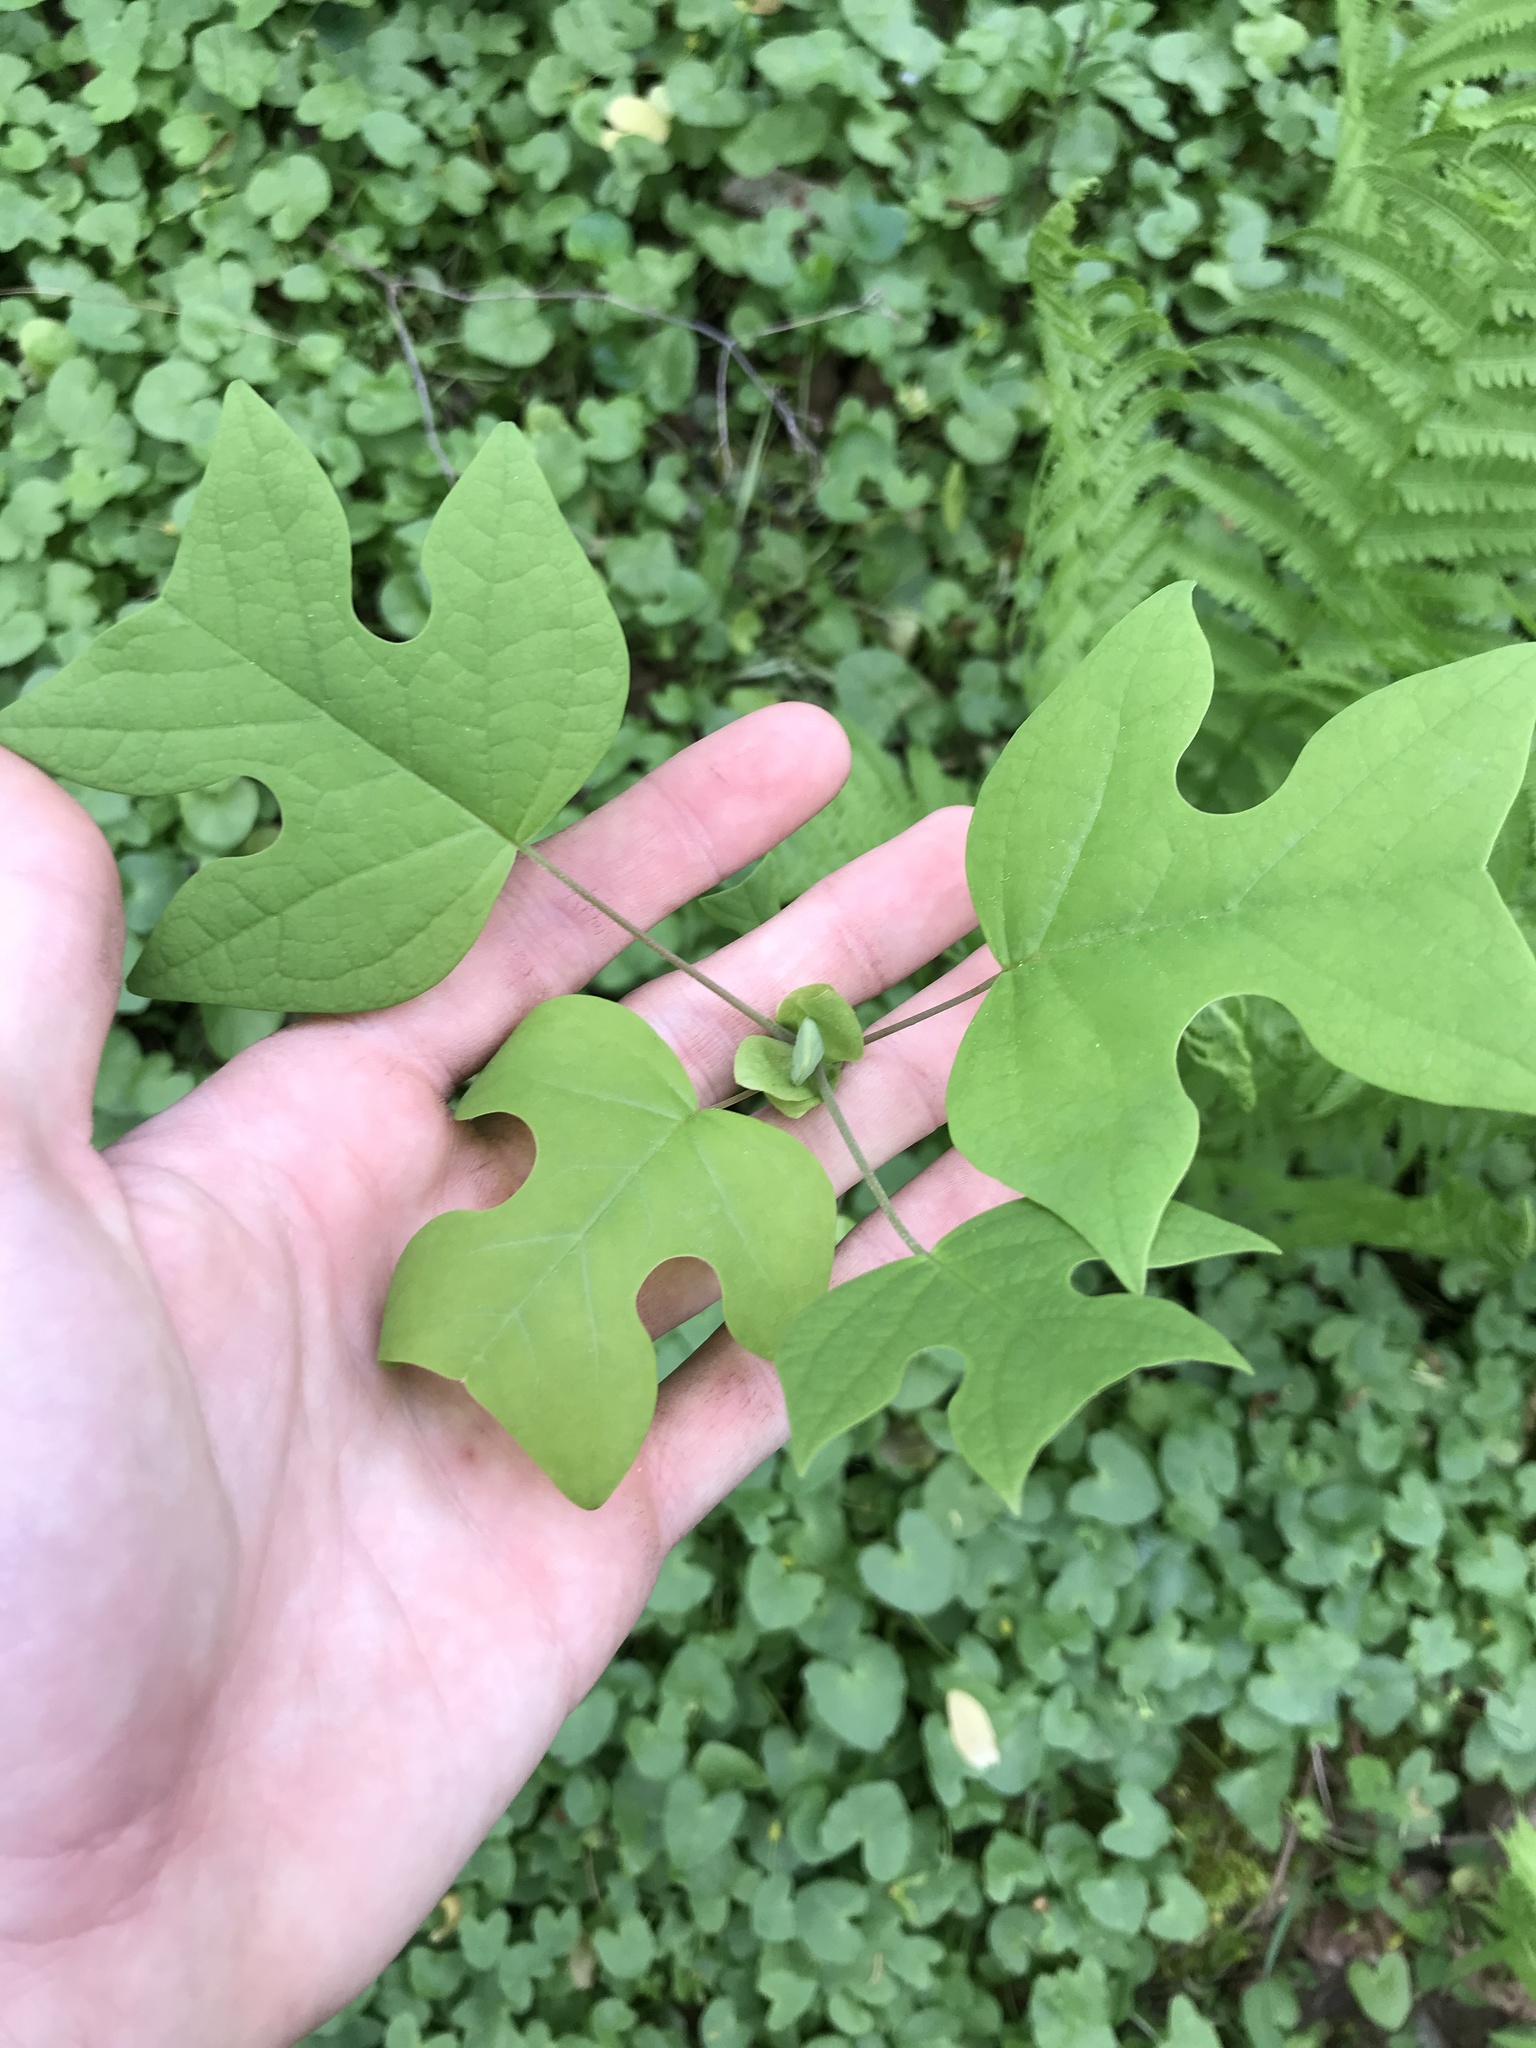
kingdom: Plantae
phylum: Tracheophyta
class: Magnoliopsida
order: Magnoliales
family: Magnoliaceae
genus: Liriodendron
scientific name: Liriodendron tulipifera
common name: Tulip tree
